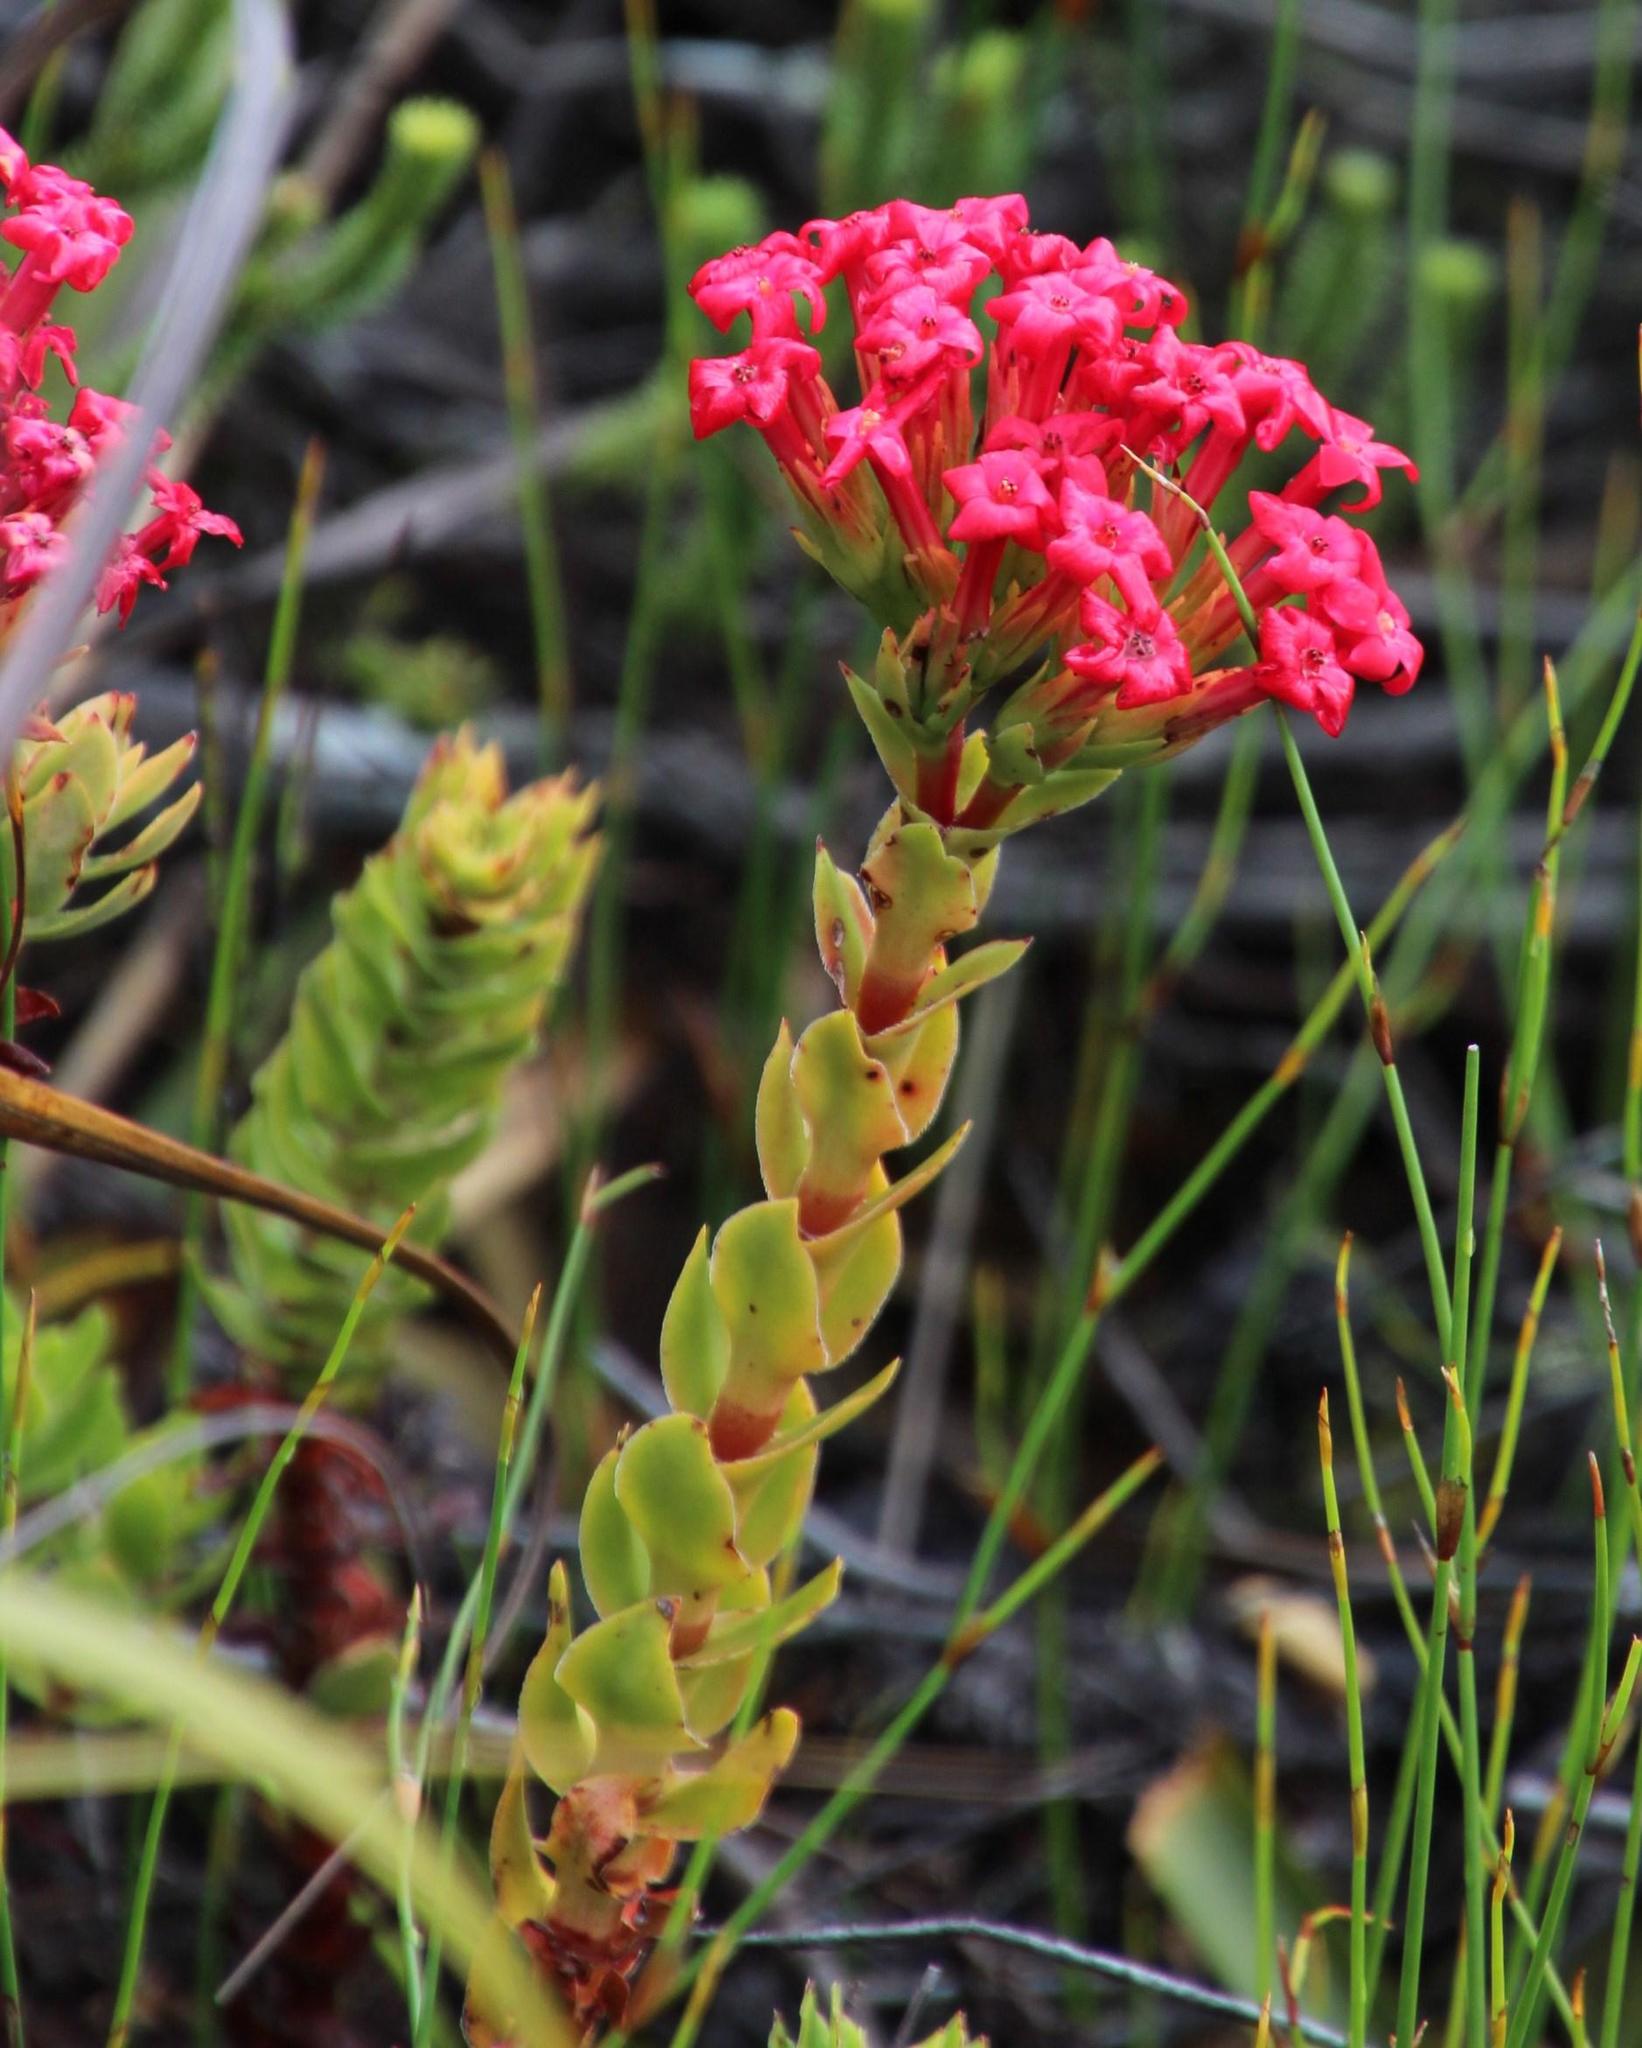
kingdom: Plantae
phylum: Tracheophyta
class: Magnoliopsida
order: Saxifragales
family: Crassulaceae
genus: Crassula
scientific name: Crassula coccinea
